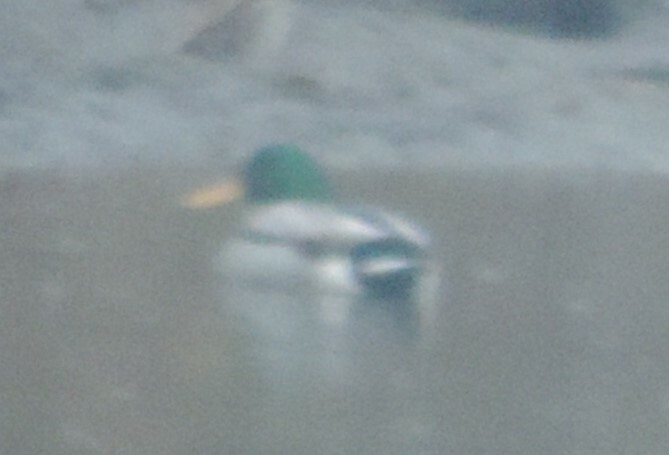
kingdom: Animalia
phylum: Chordata
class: Aves
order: Anseriformes
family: Anatidae
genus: Anas
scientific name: Anas platyrhynchos
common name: Mallard
